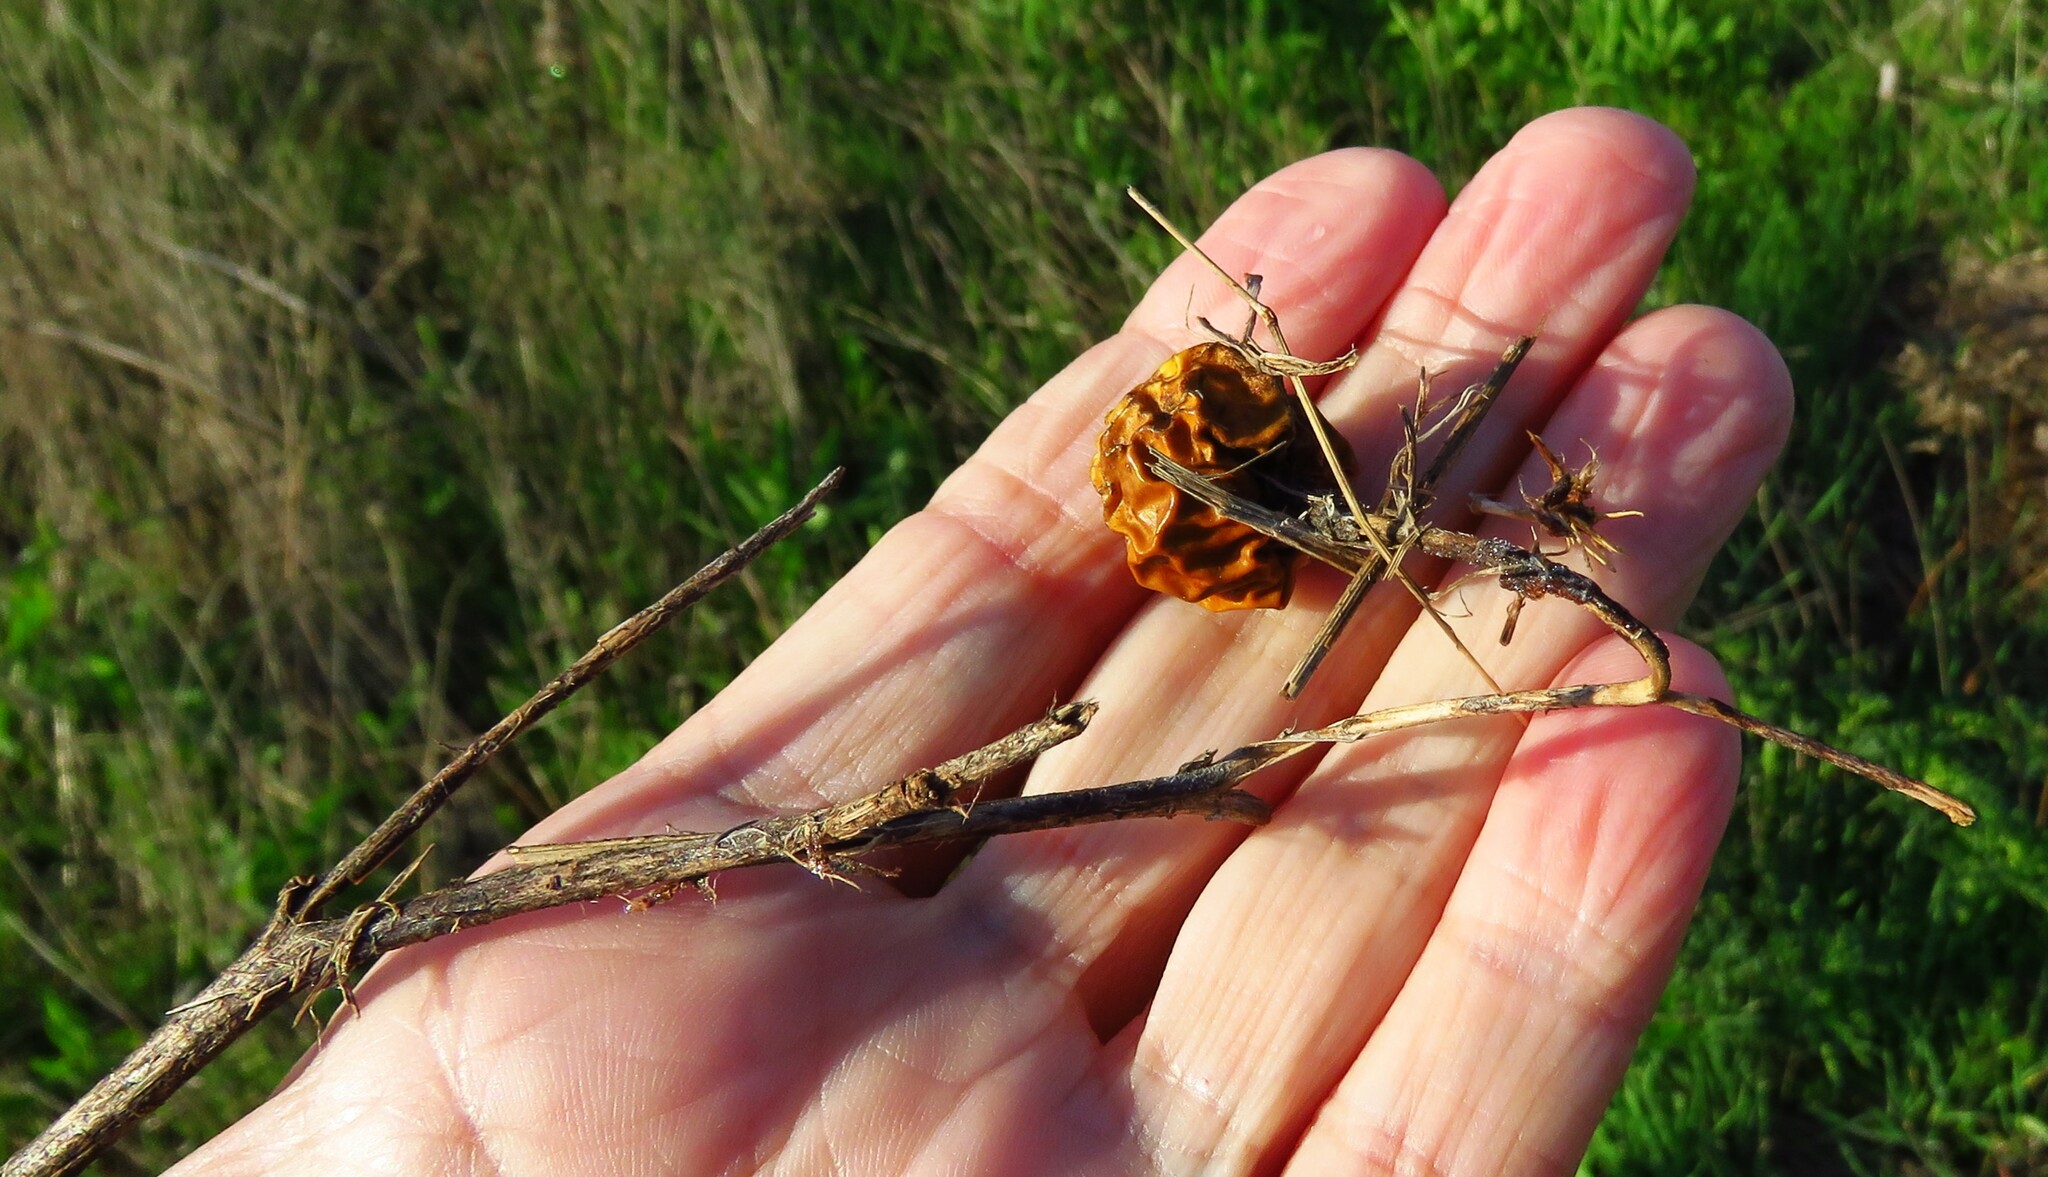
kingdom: Plantae
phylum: Tracheophyta
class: Magnoliopsida
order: Solanales
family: Solanaceae
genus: Solanum
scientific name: Solanum
